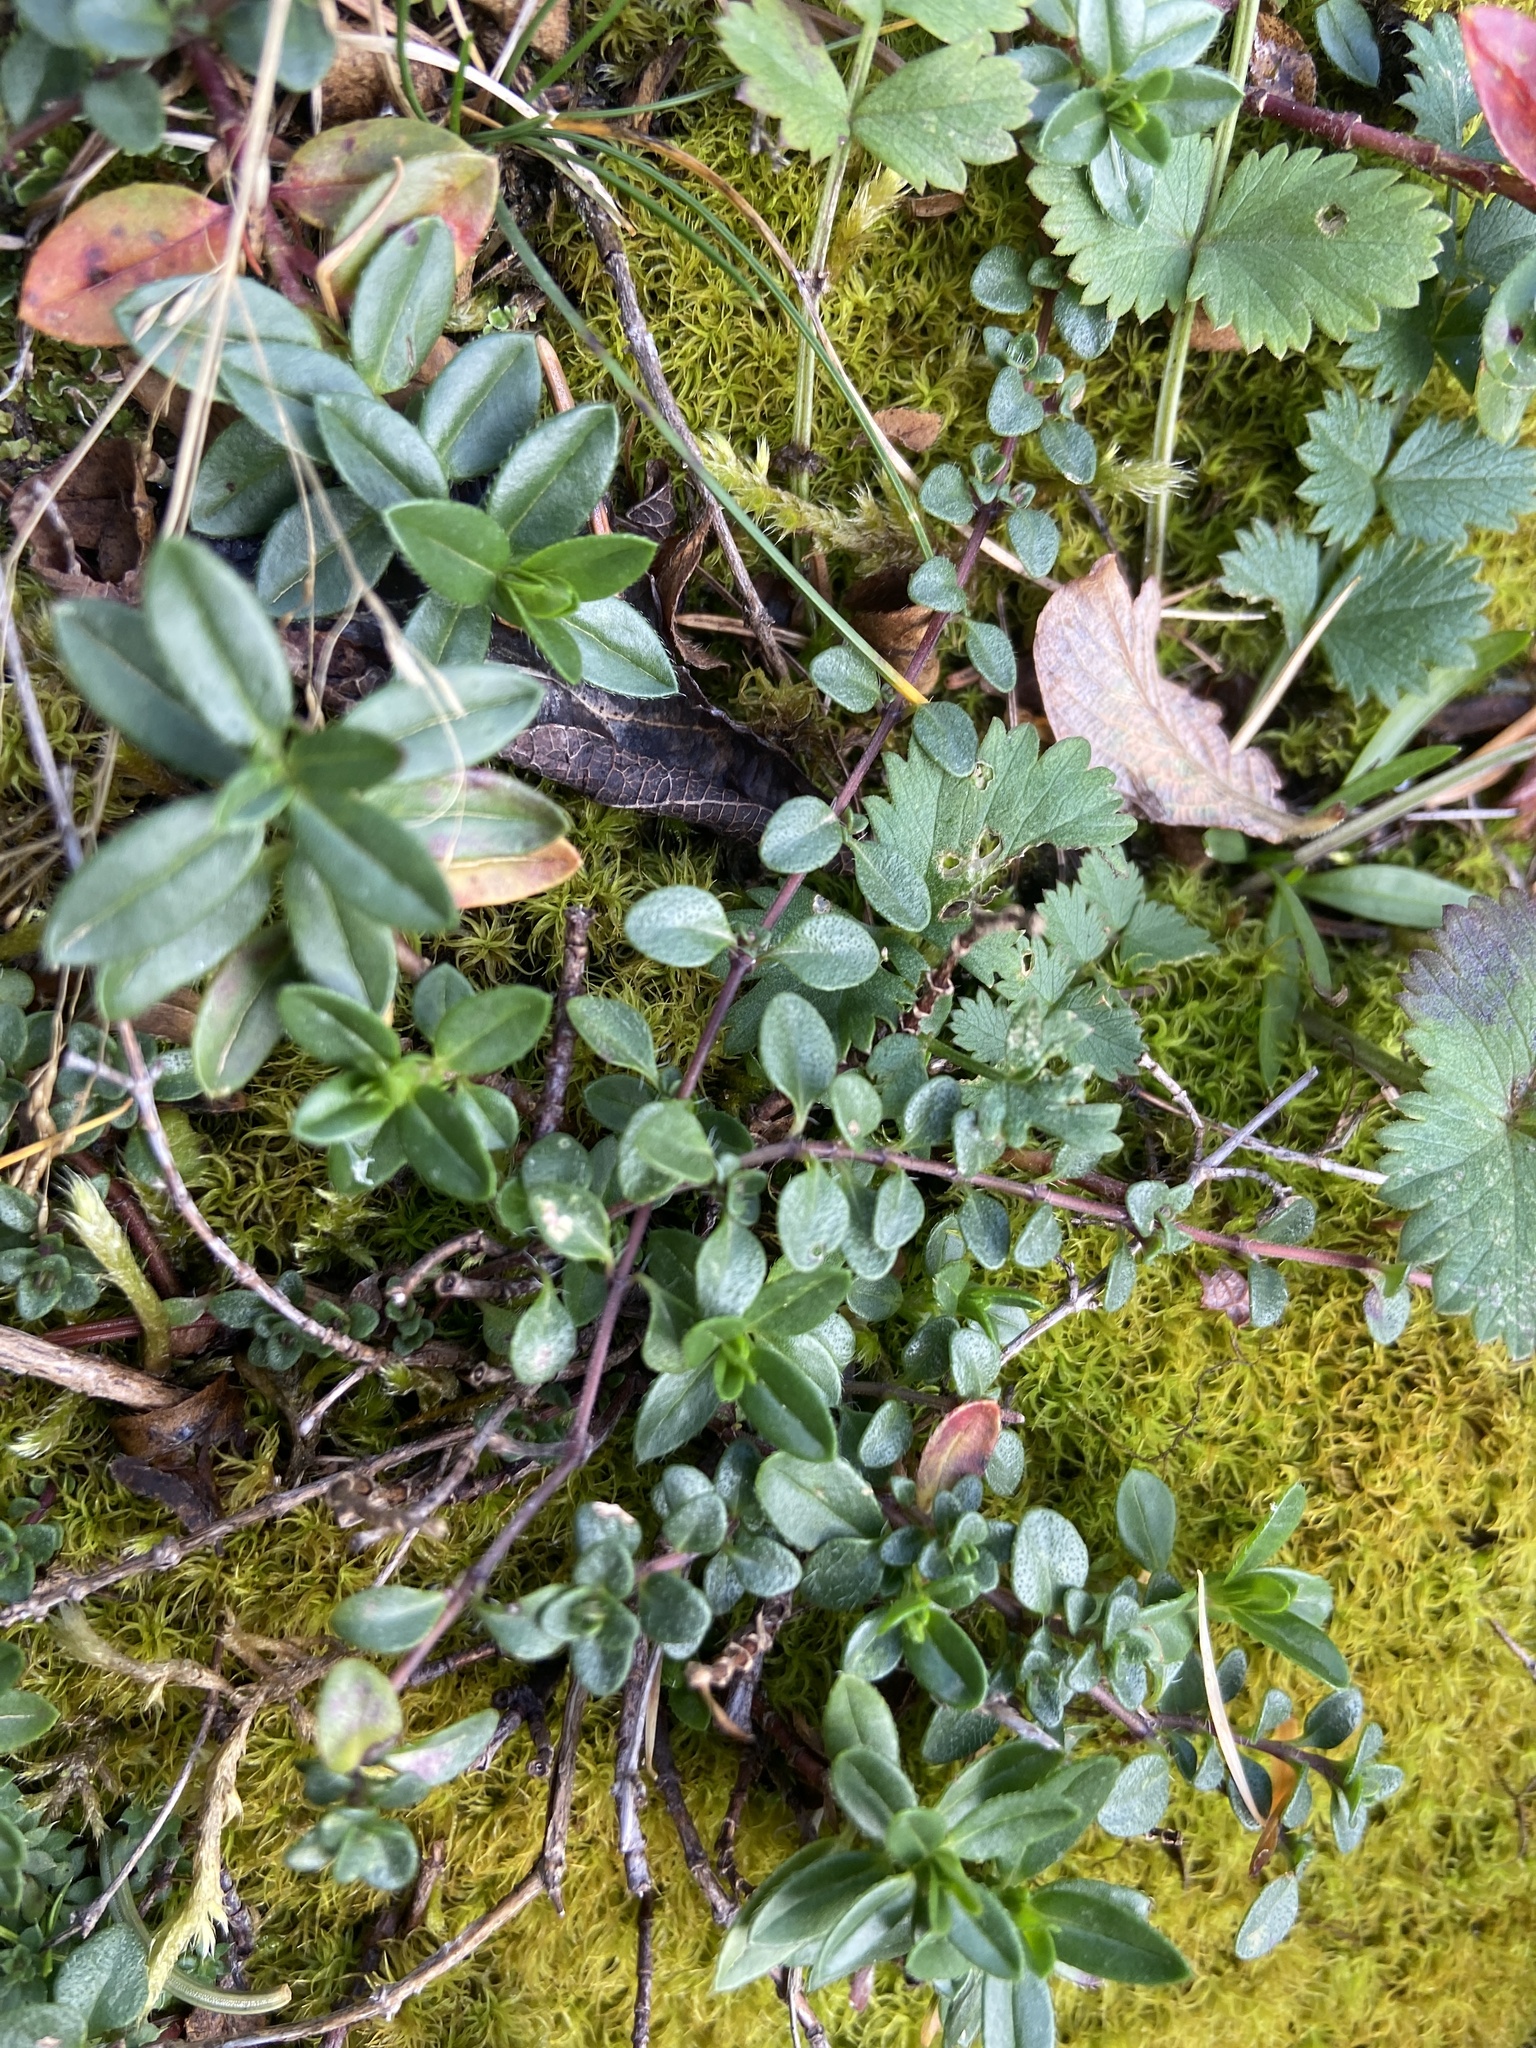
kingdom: Plantae
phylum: Tracheophyta
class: Magnoliopsida
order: Malvales
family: Cistaceae
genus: Helianthemum
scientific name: Helianthemum nummularium
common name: Common rock-rose
